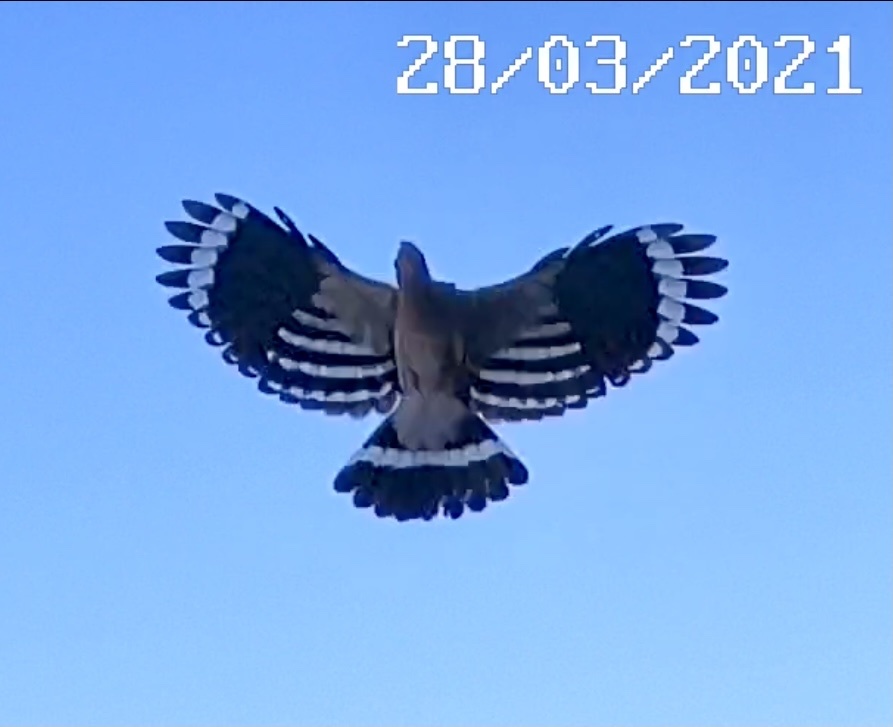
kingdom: Animalia
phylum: Chordata
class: Aves
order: Bucerotiformes
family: Upupidae
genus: Upupa
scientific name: Upupa epops
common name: Eurasian hoopoe
